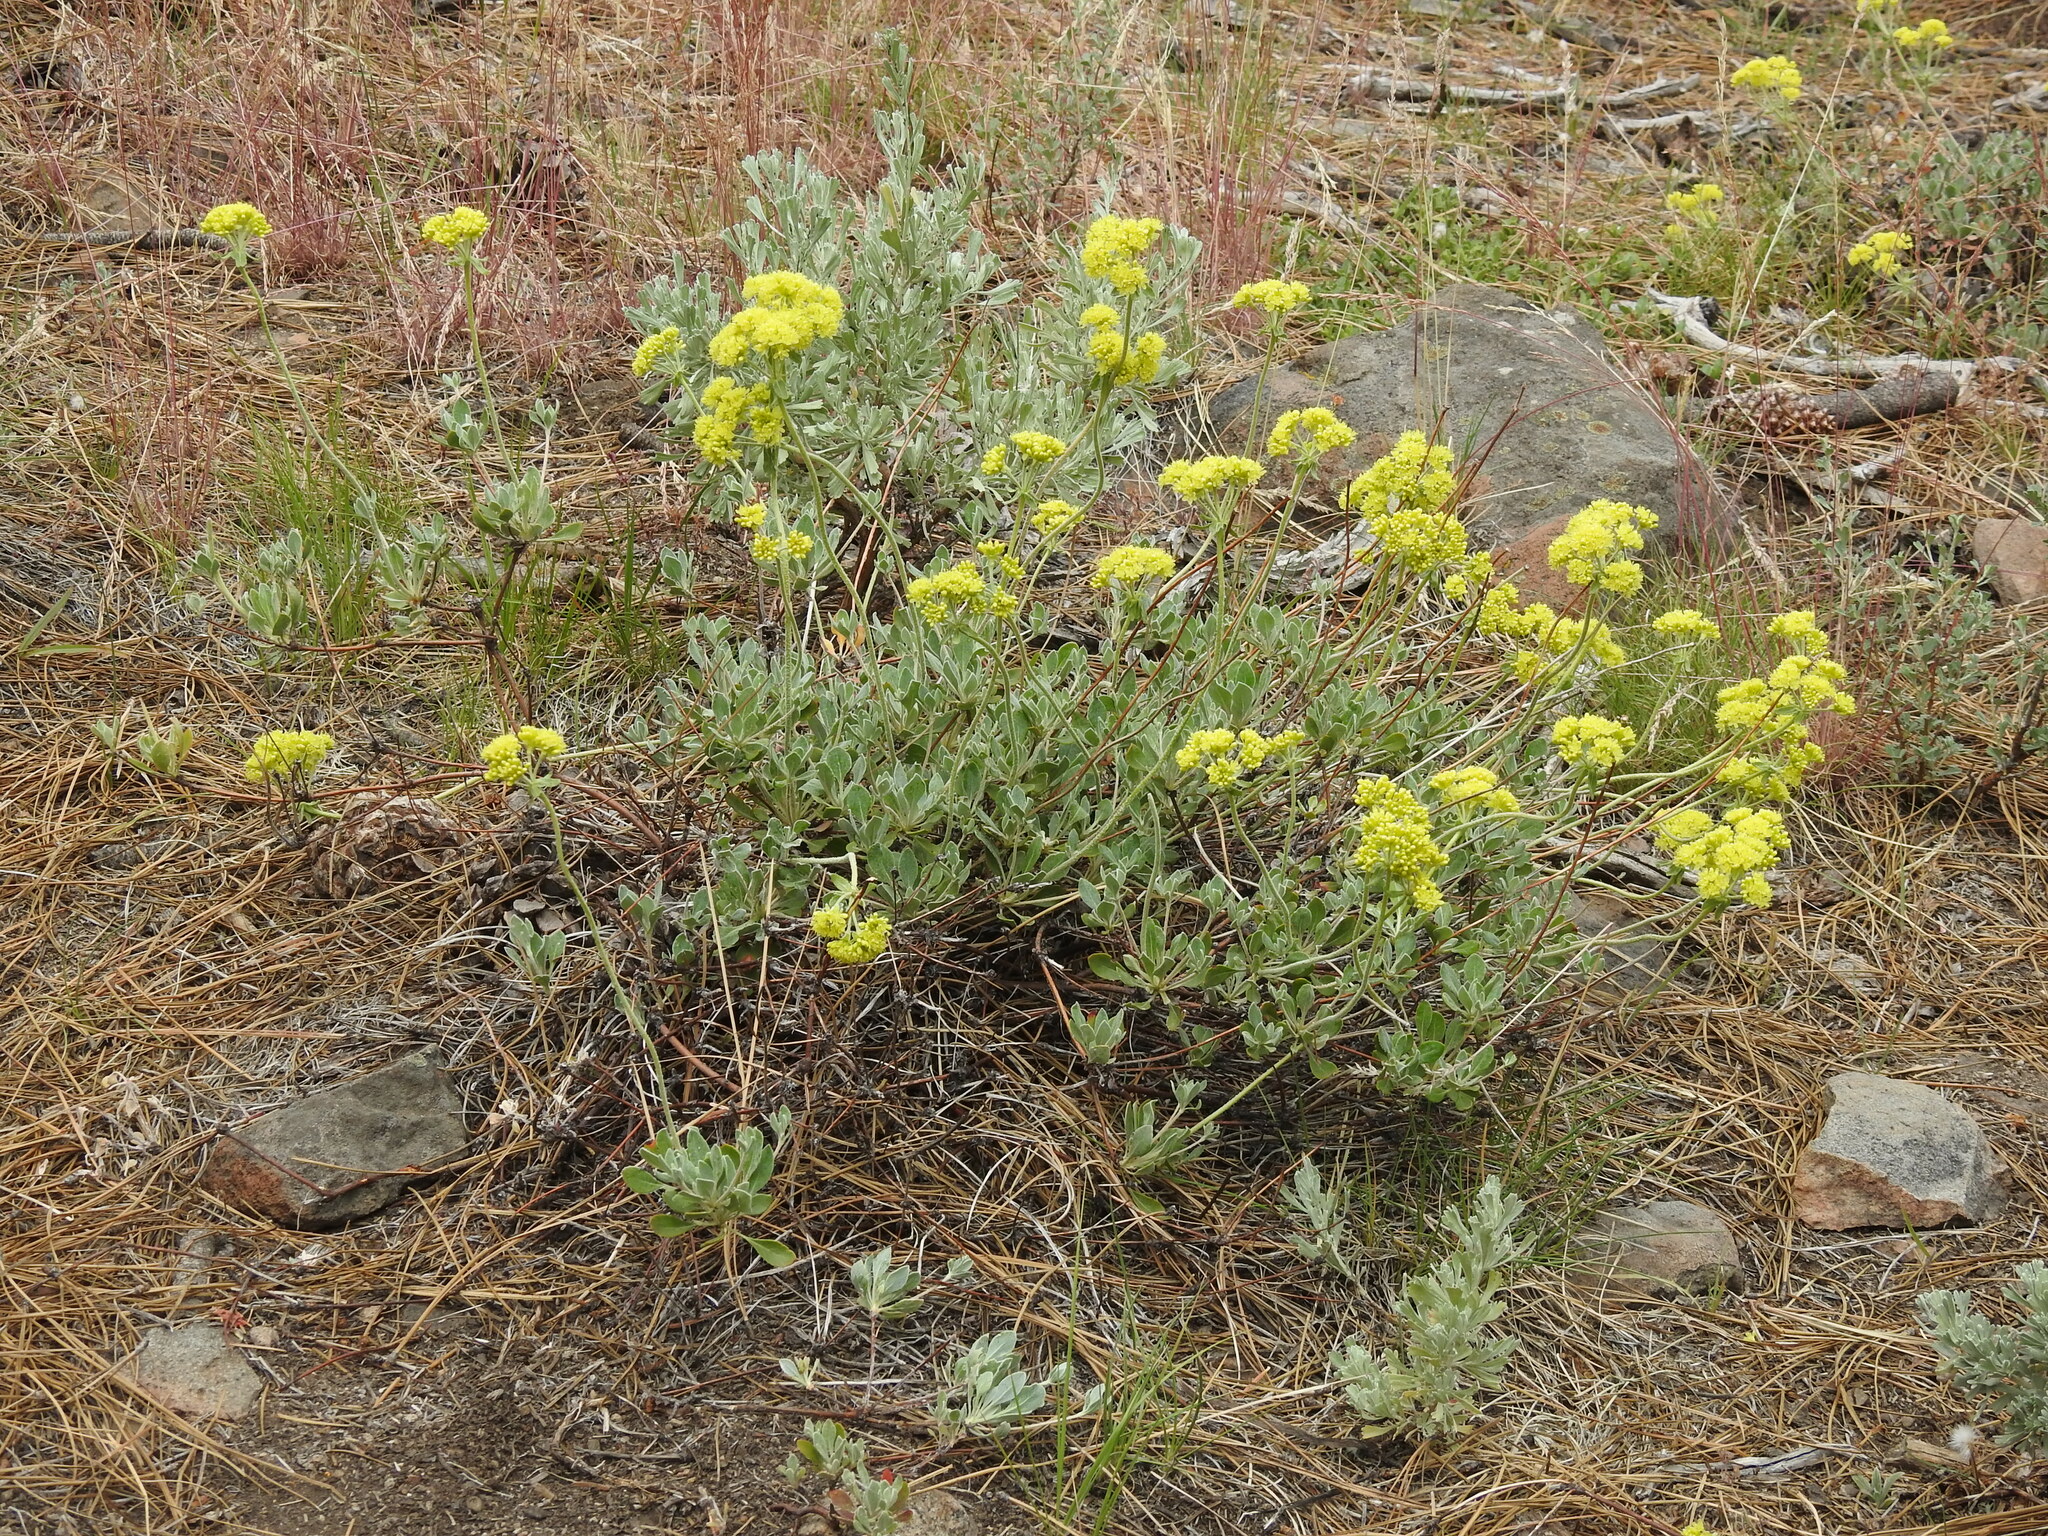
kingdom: Plantae
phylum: Tracheophyta
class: Magnoliopsida
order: Caryophyllales
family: Polygonaceae
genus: Eriogonum
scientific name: Eriogonum umbellatum
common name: Sulfur-buckwheat
